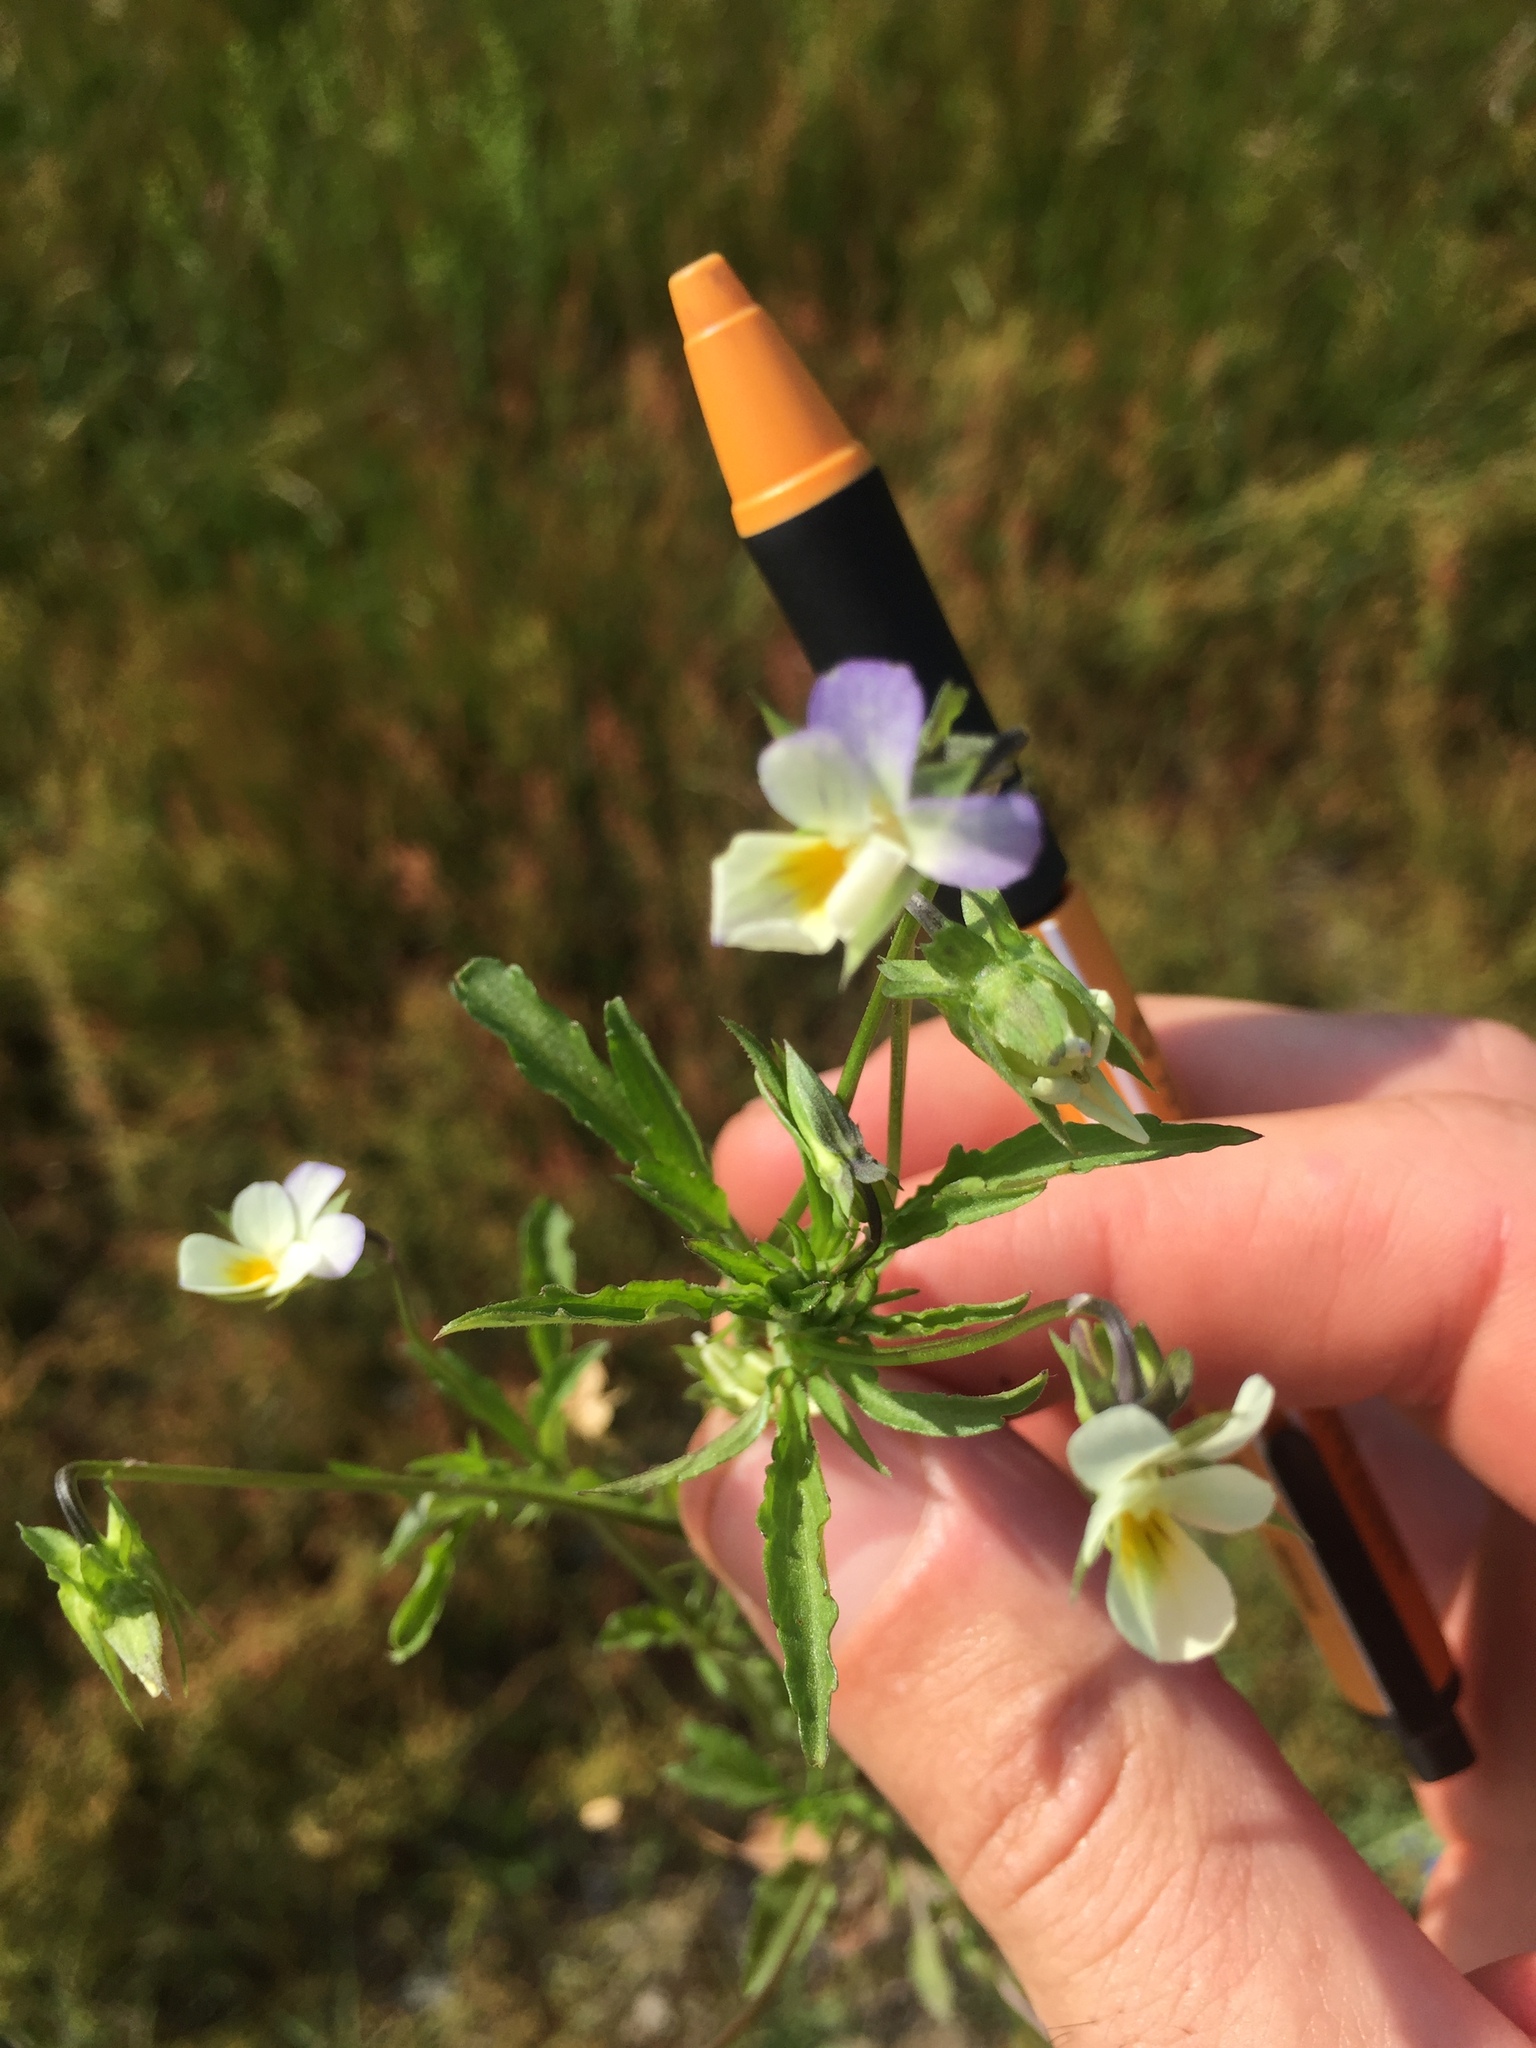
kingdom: Plantae
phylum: Tracheophyta
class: Magnoliopsida
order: Malpighiales
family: Violaceae
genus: Viola
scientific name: Viola arvensis
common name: Field pansy
